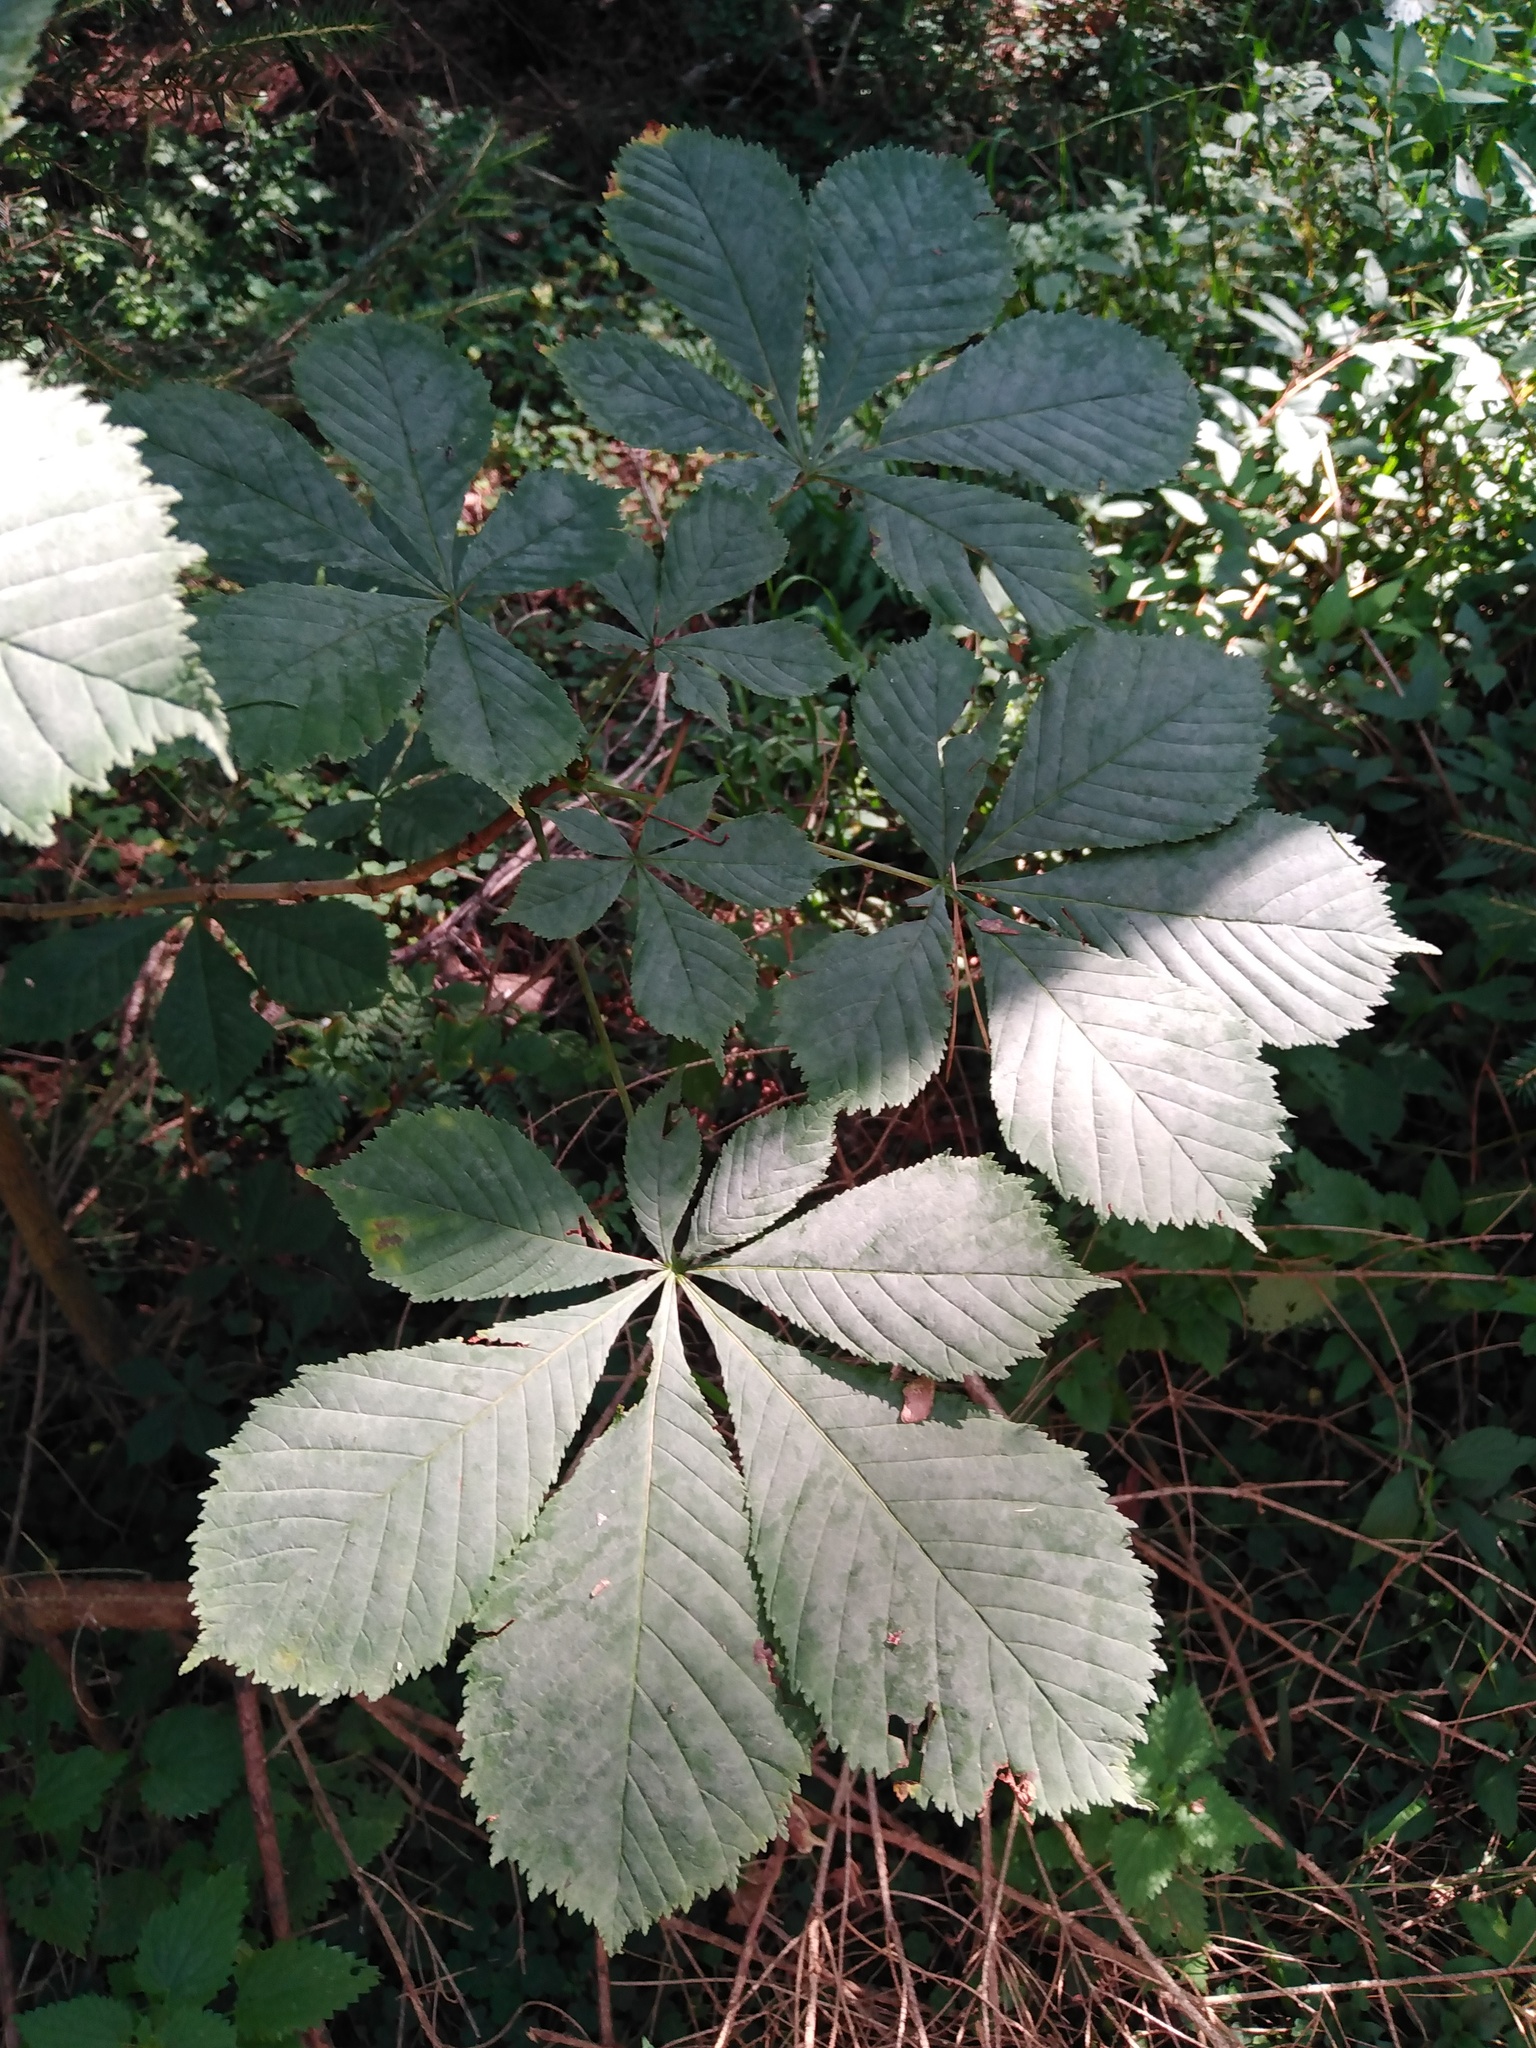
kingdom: Plantae
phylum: Tracheophyta
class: Magnoliopsida
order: Sapindales
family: Sapindaceae
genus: Aesculus
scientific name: Aesculus hippocastanum
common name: Horse-chestnut
